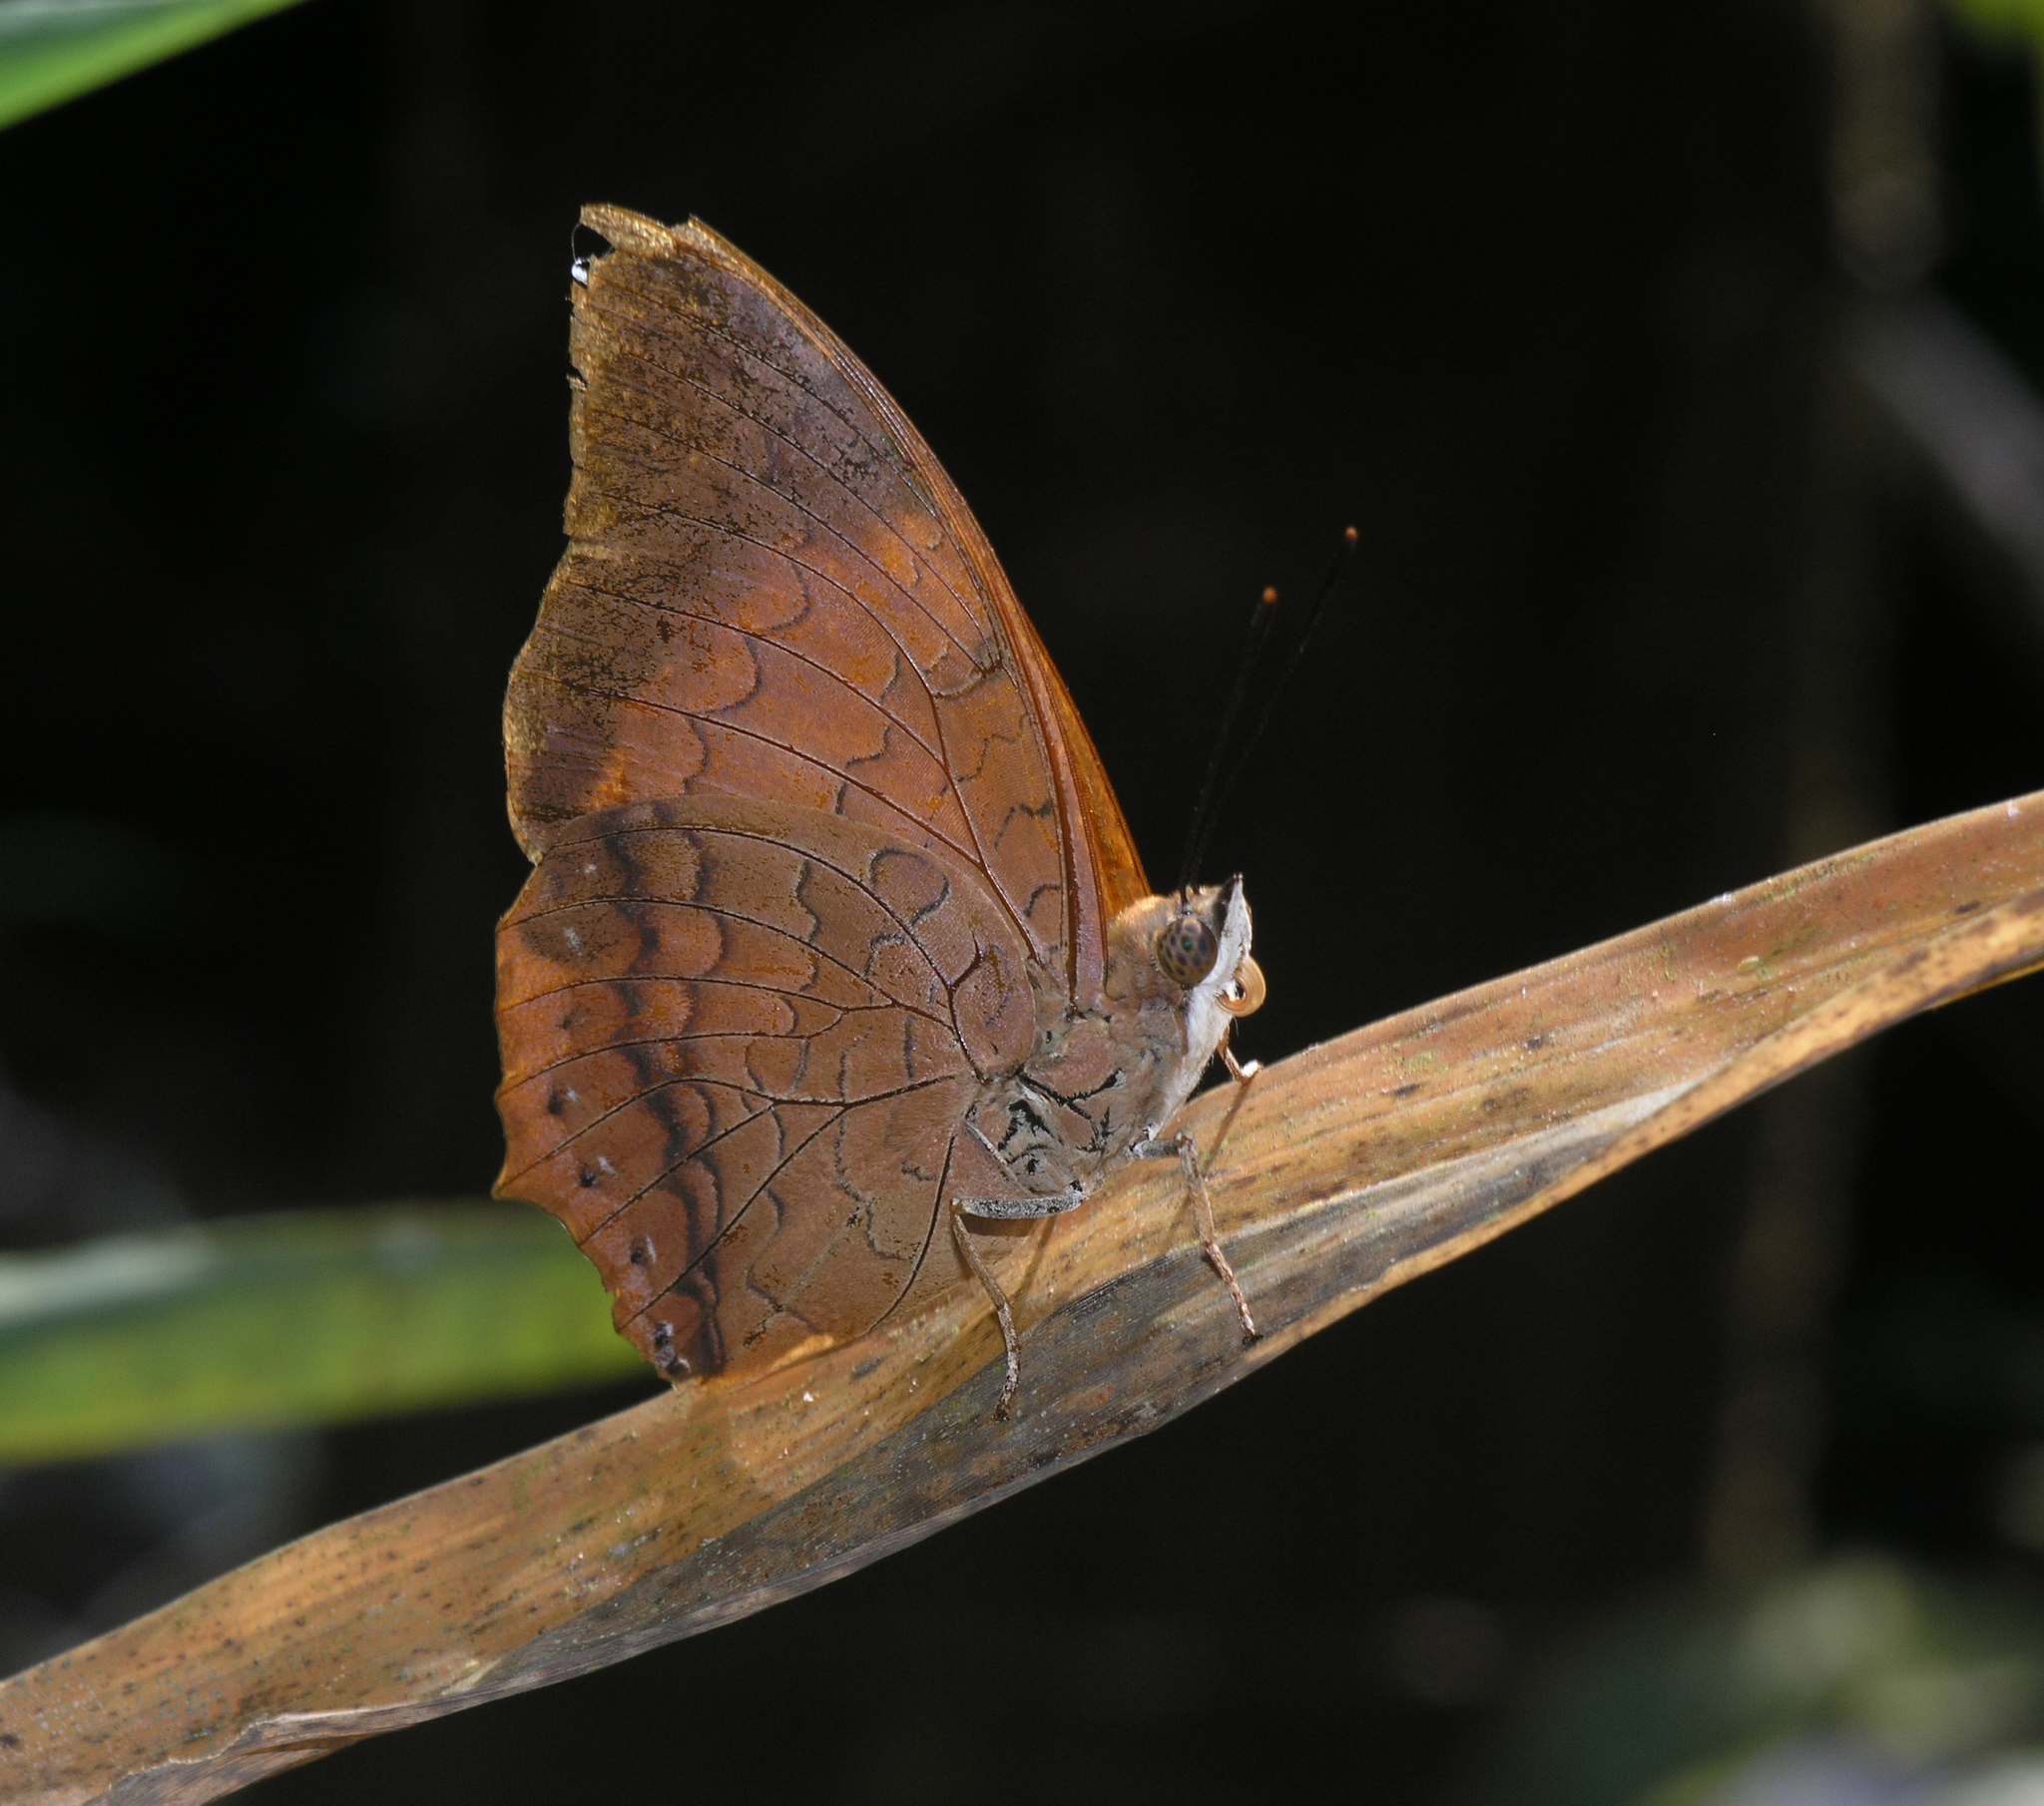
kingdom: Animalia
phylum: Arthropoda
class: Insecta
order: Lepidoptera
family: Nymphalidae
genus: Charaxes
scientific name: Charaxes bernardus
